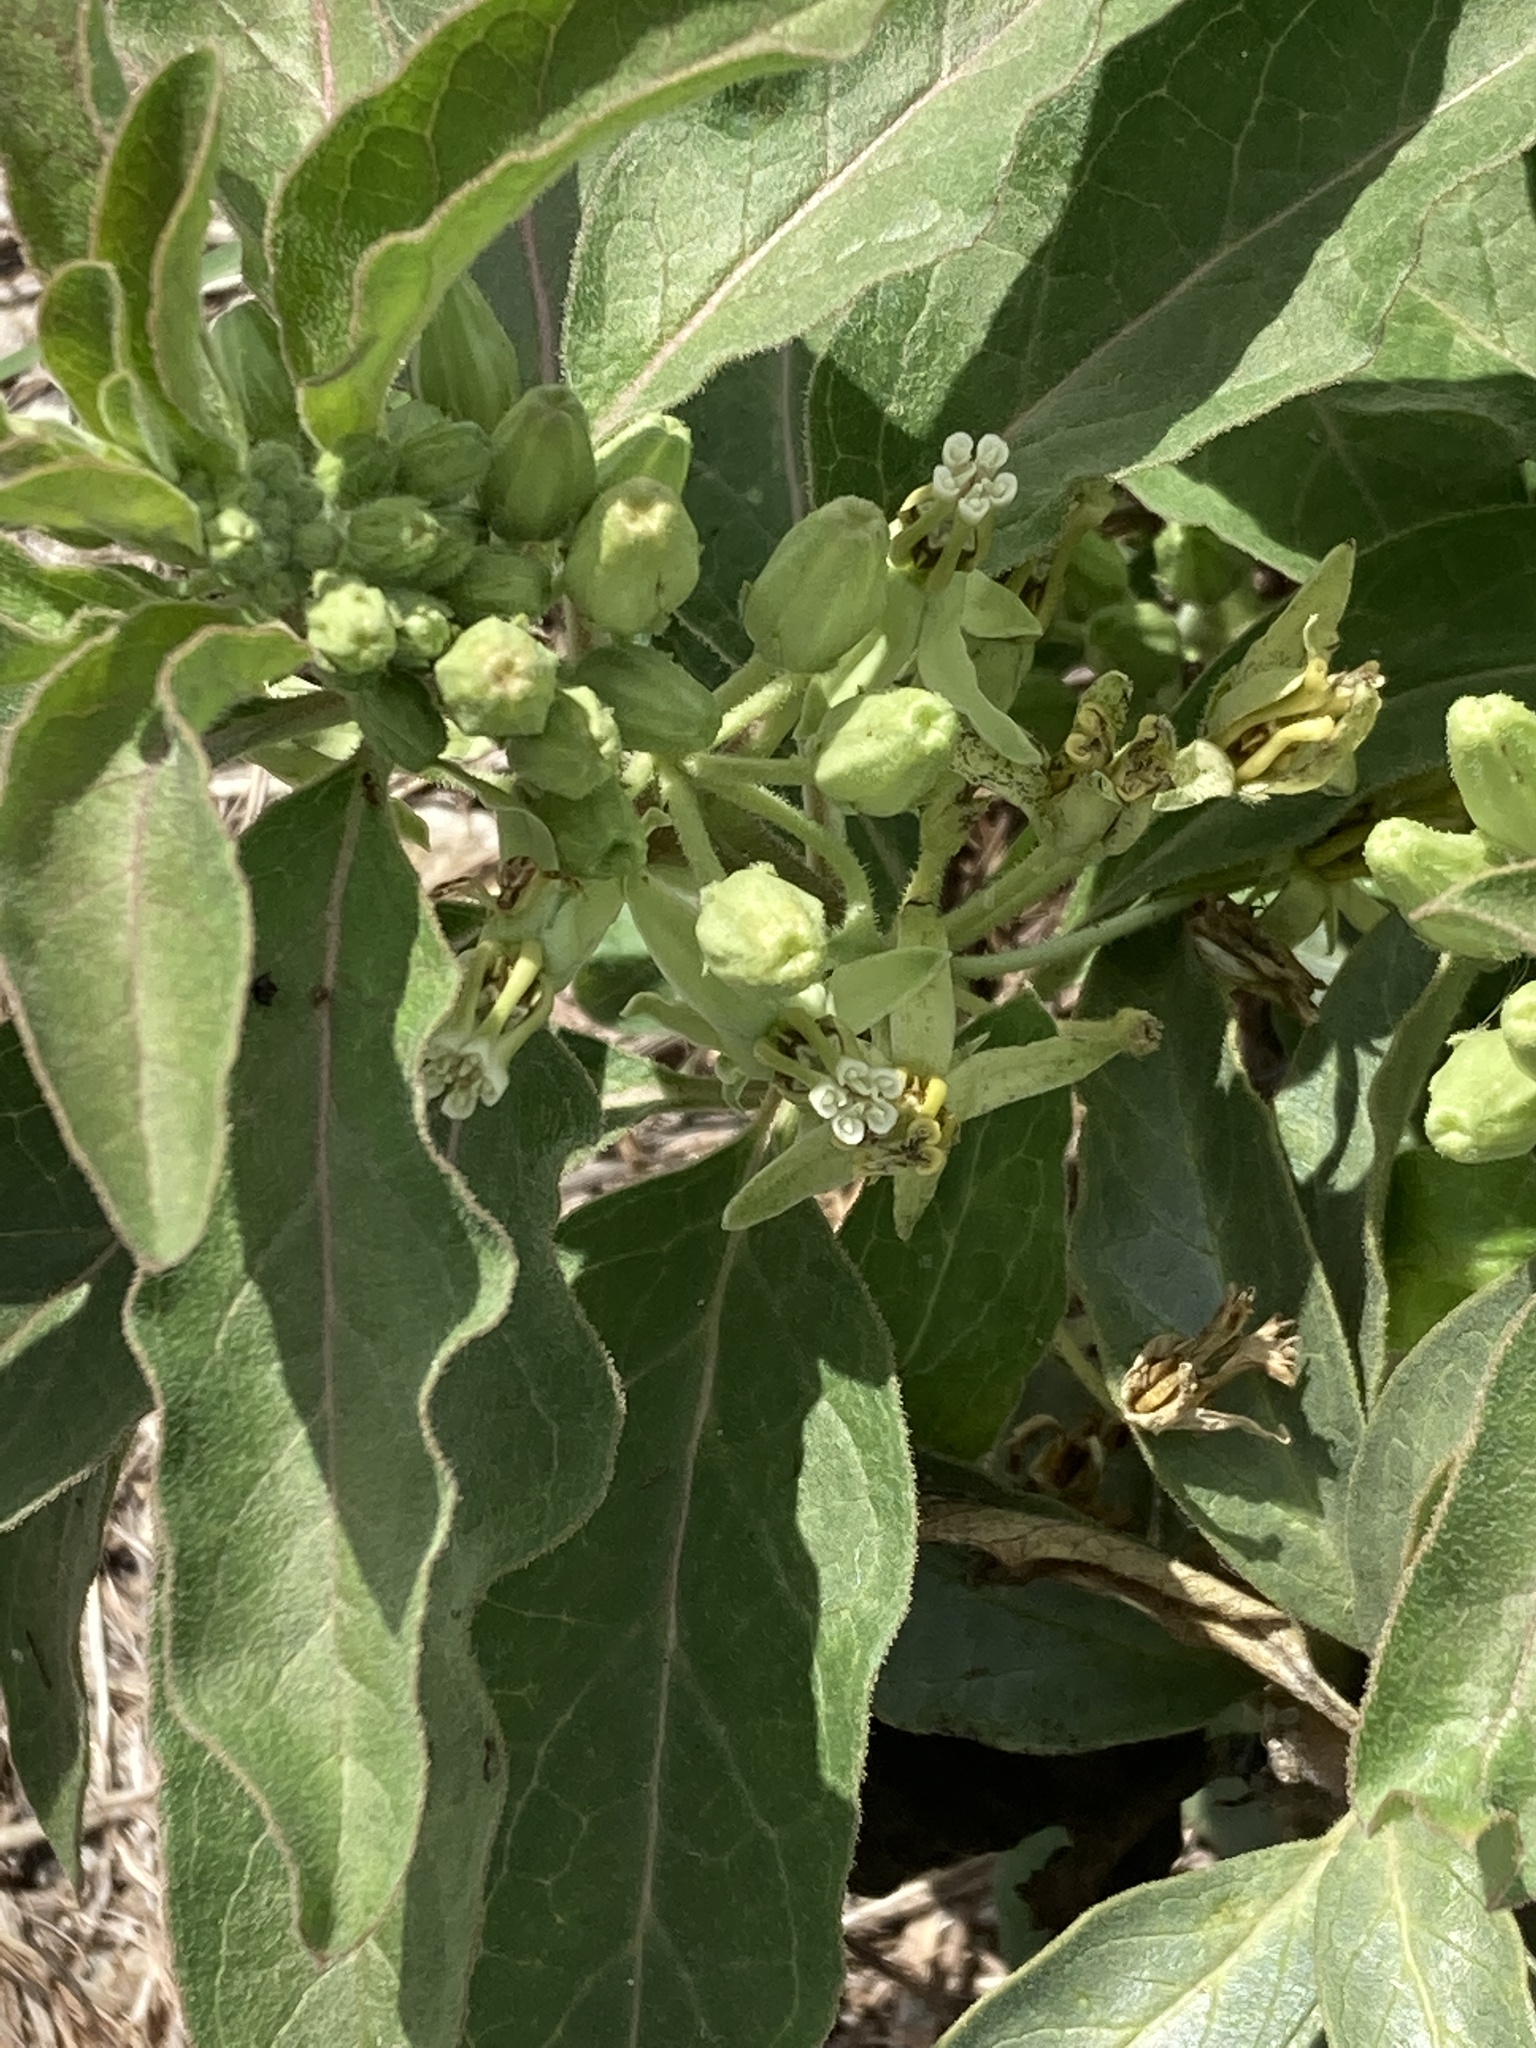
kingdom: Plantae
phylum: Tracheophyta
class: Magnoliopsida
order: Gentianales
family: Apocynaceae
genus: Asclepias
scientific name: Asclepias oenotheroides
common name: Zizotes milkweed
